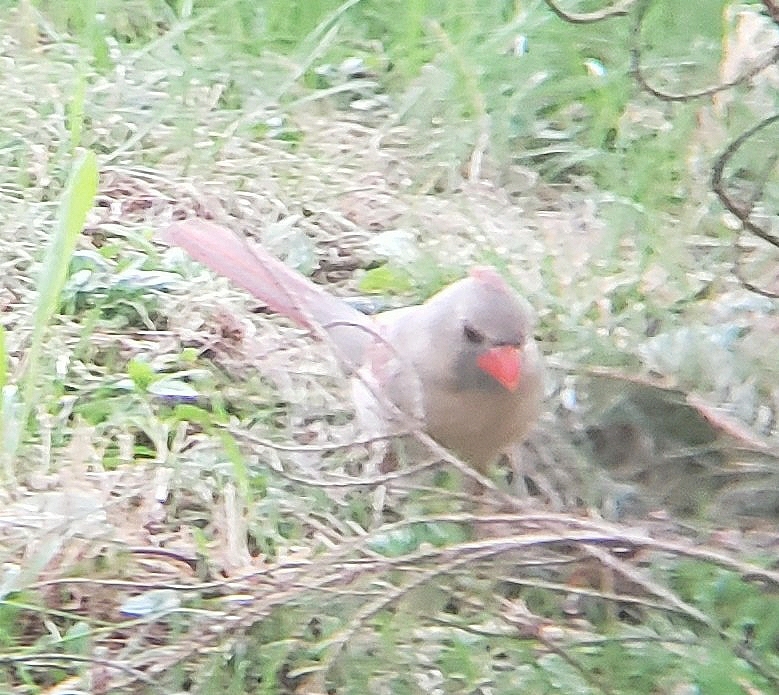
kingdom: Animalia
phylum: Chordata
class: Aves
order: Passeriformes
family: Cardinalidae
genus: Cardinalis
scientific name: Cardinalis cardinalis
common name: Northern cardinal
